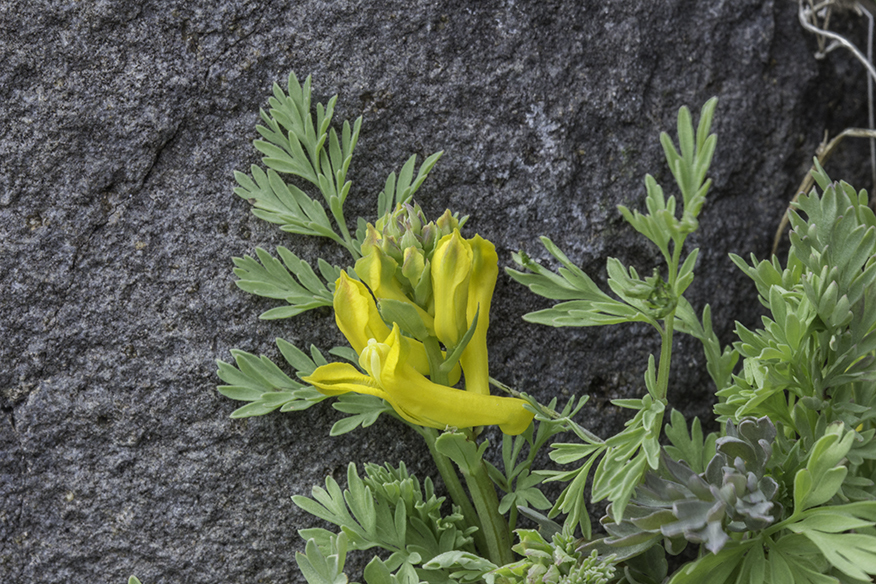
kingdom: Plantae
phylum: Tracheophyta
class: Magnoliopsida
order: Ranunculales
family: Papaveraceae
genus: Corydalis
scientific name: Corydalis aurea
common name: Golden corydalis
